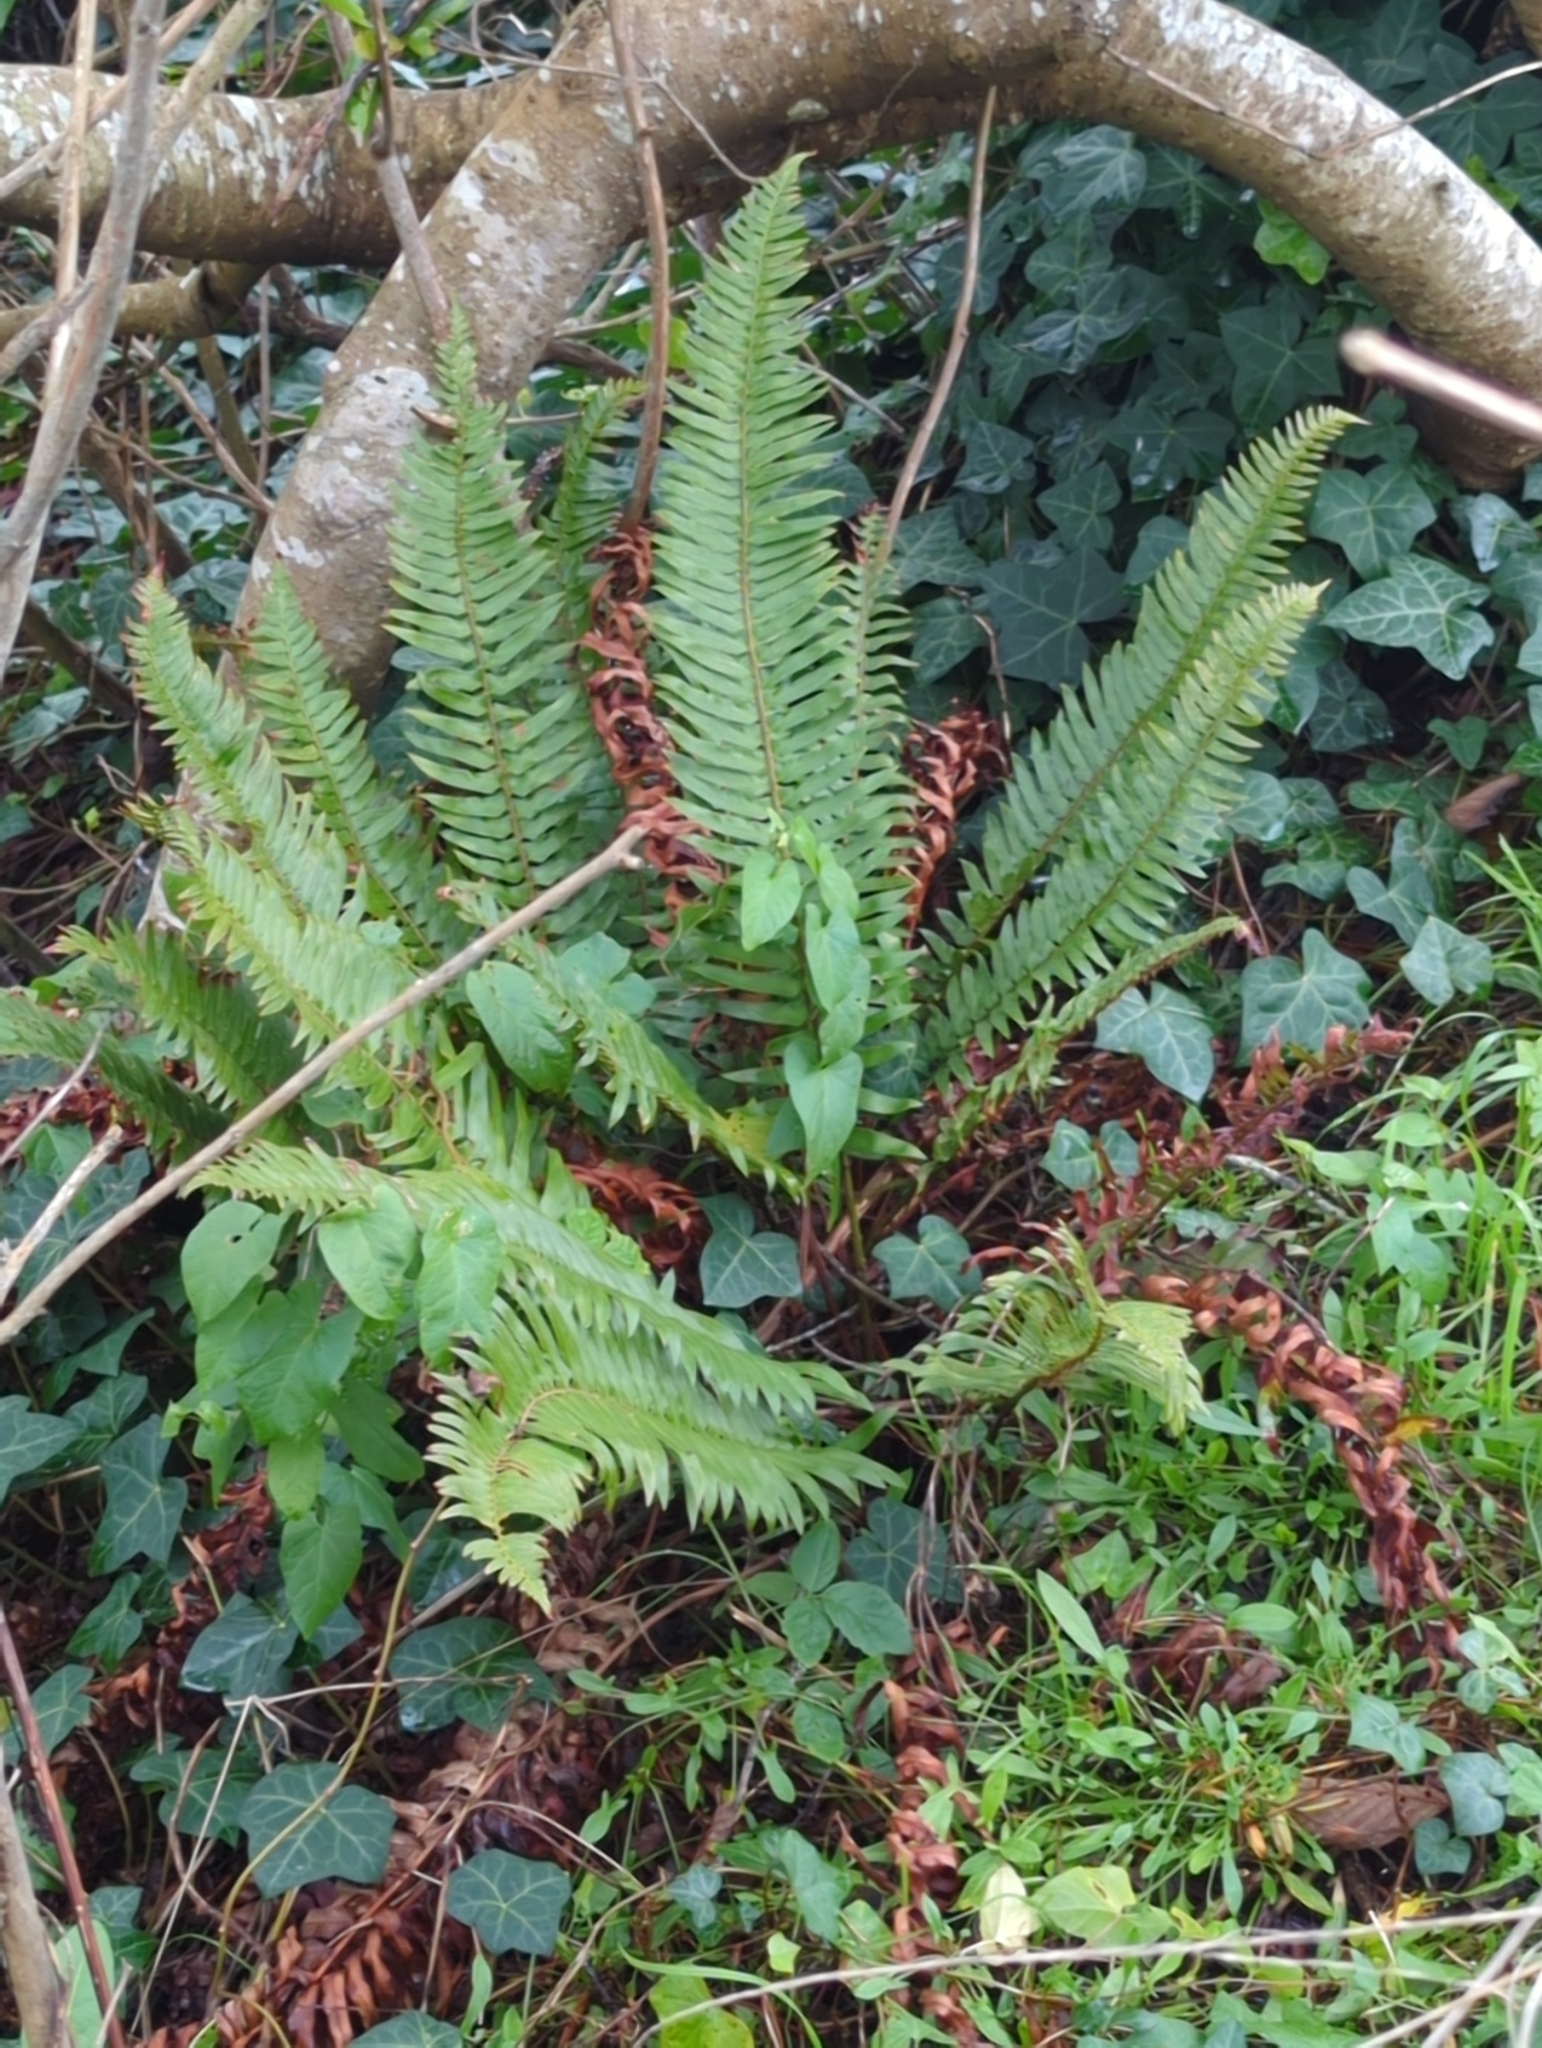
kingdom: Plantae
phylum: Tracheophyta
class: Polypodiopsida
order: Polypodiales
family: Dryopteridaceae
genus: Polystichum
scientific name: Polystichum munitum
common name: Western sword-fern
